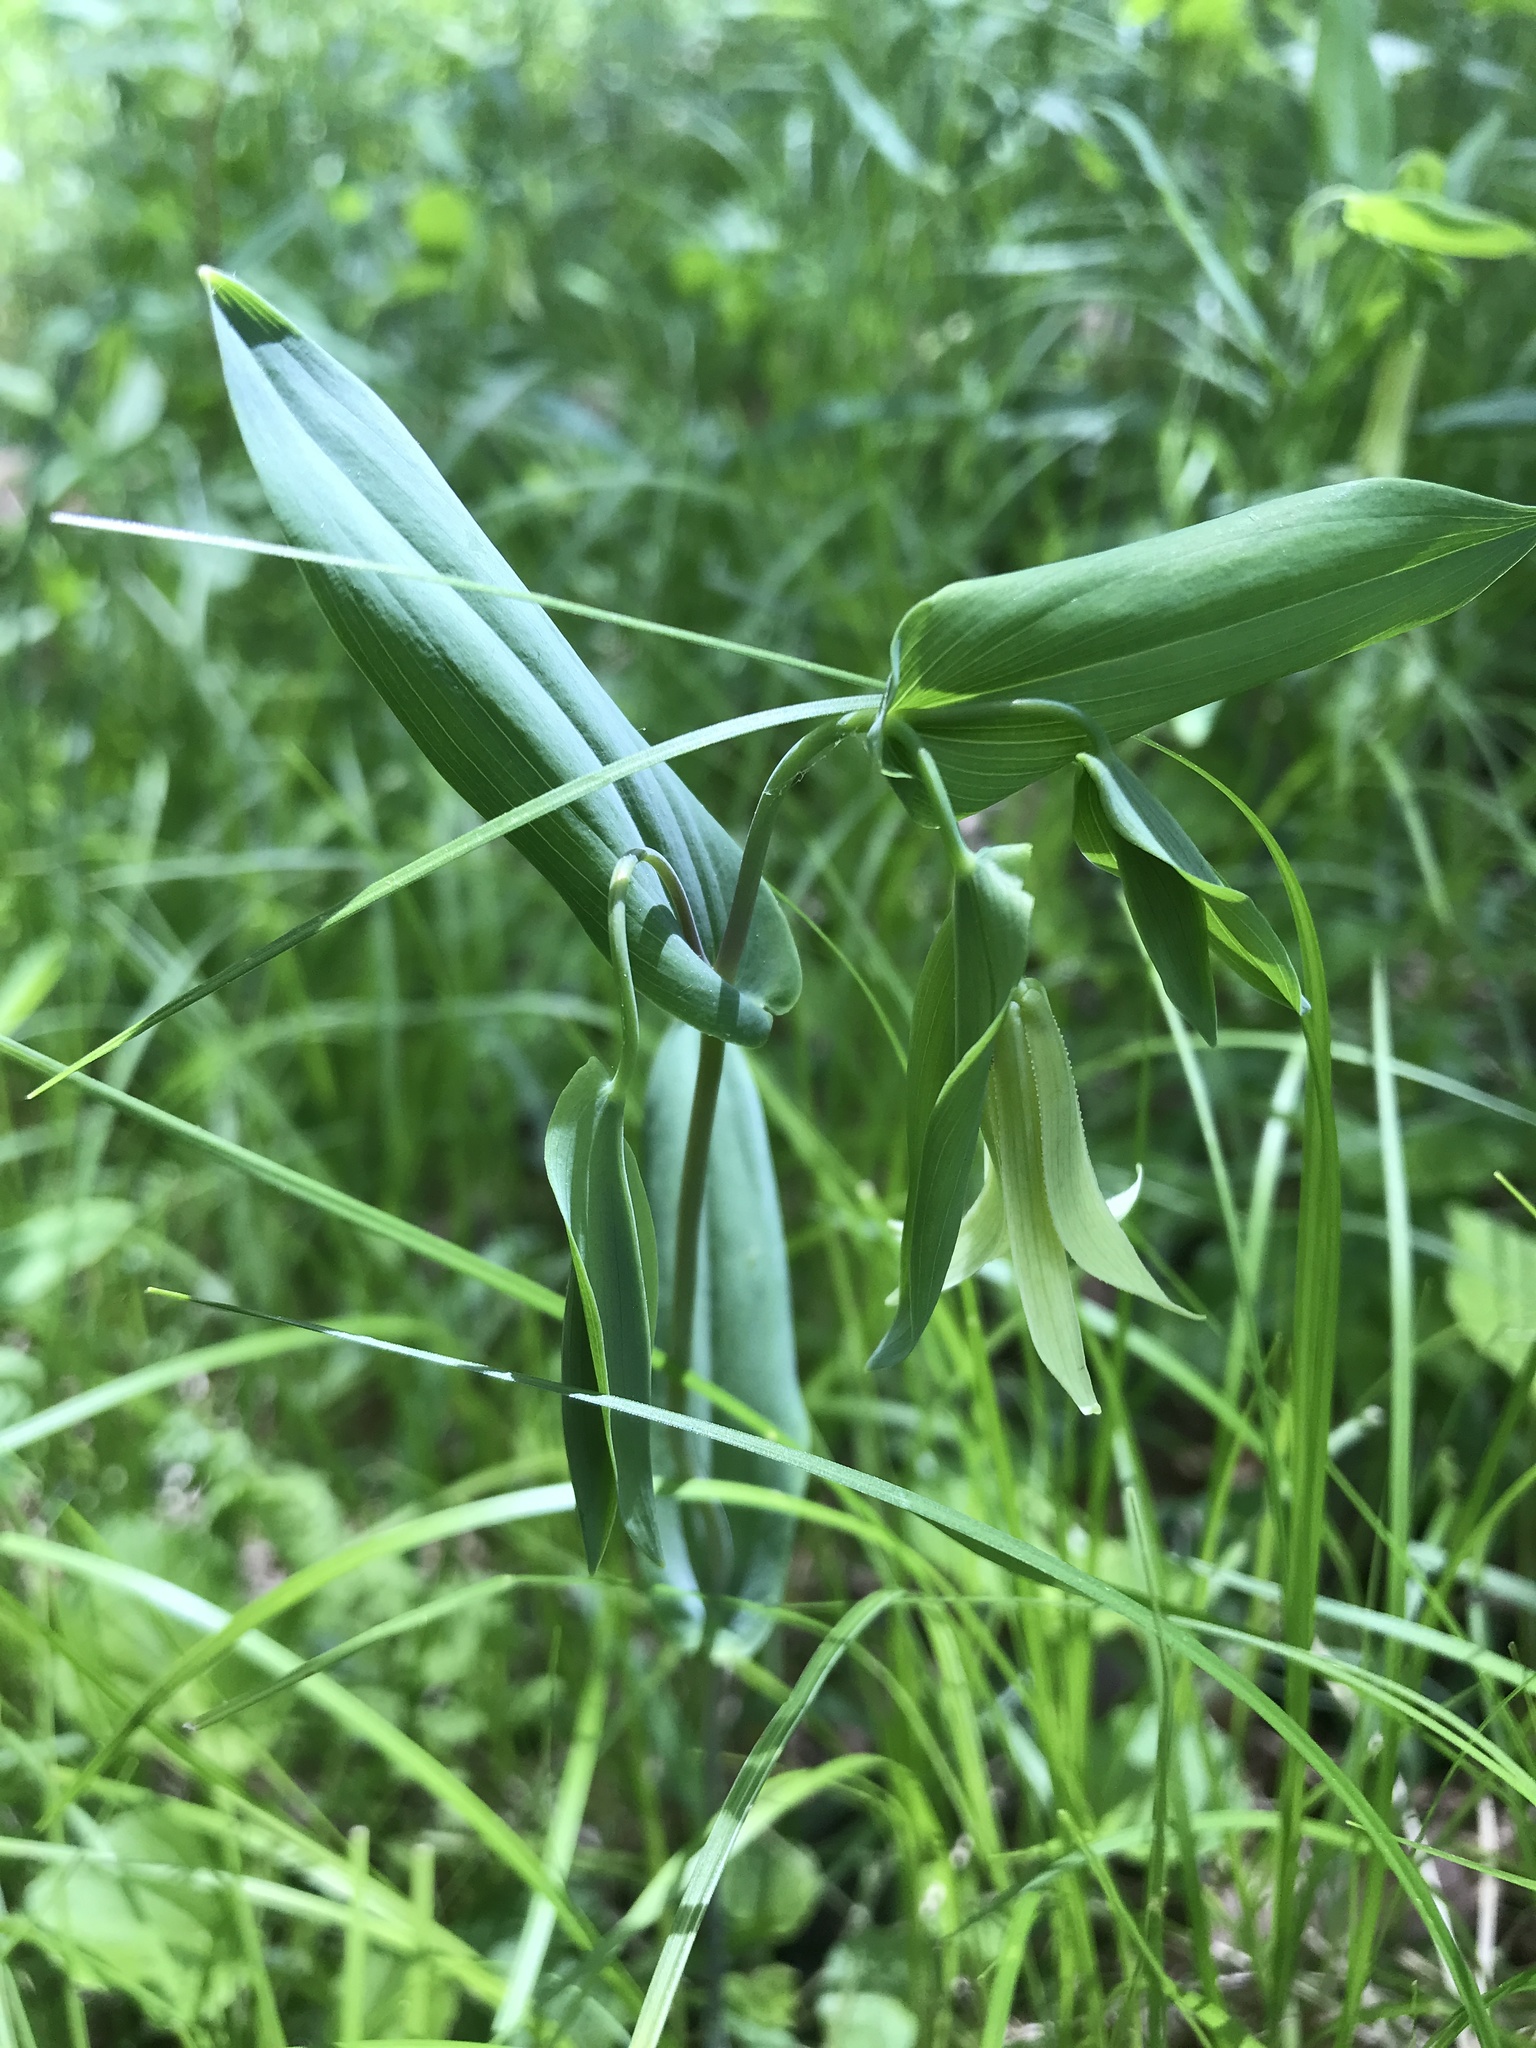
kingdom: Plantae
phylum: Tracheophyta
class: Liliopsida
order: Liliales
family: Colchicaceae
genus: Uvularia
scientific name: Uvularia perfoliata
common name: Perfoliate bellwort
